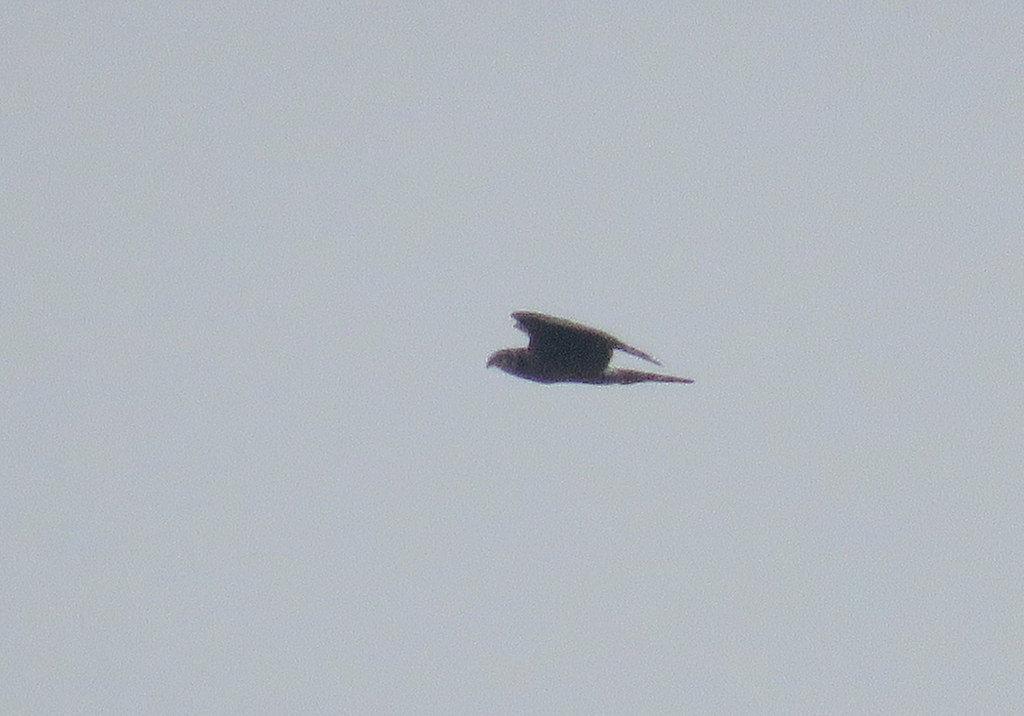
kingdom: Animalia
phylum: Chordata
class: Aves
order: Accipitriformes
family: Accipitridae
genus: Circus
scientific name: Circus buffoni
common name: Long-winged harrier
